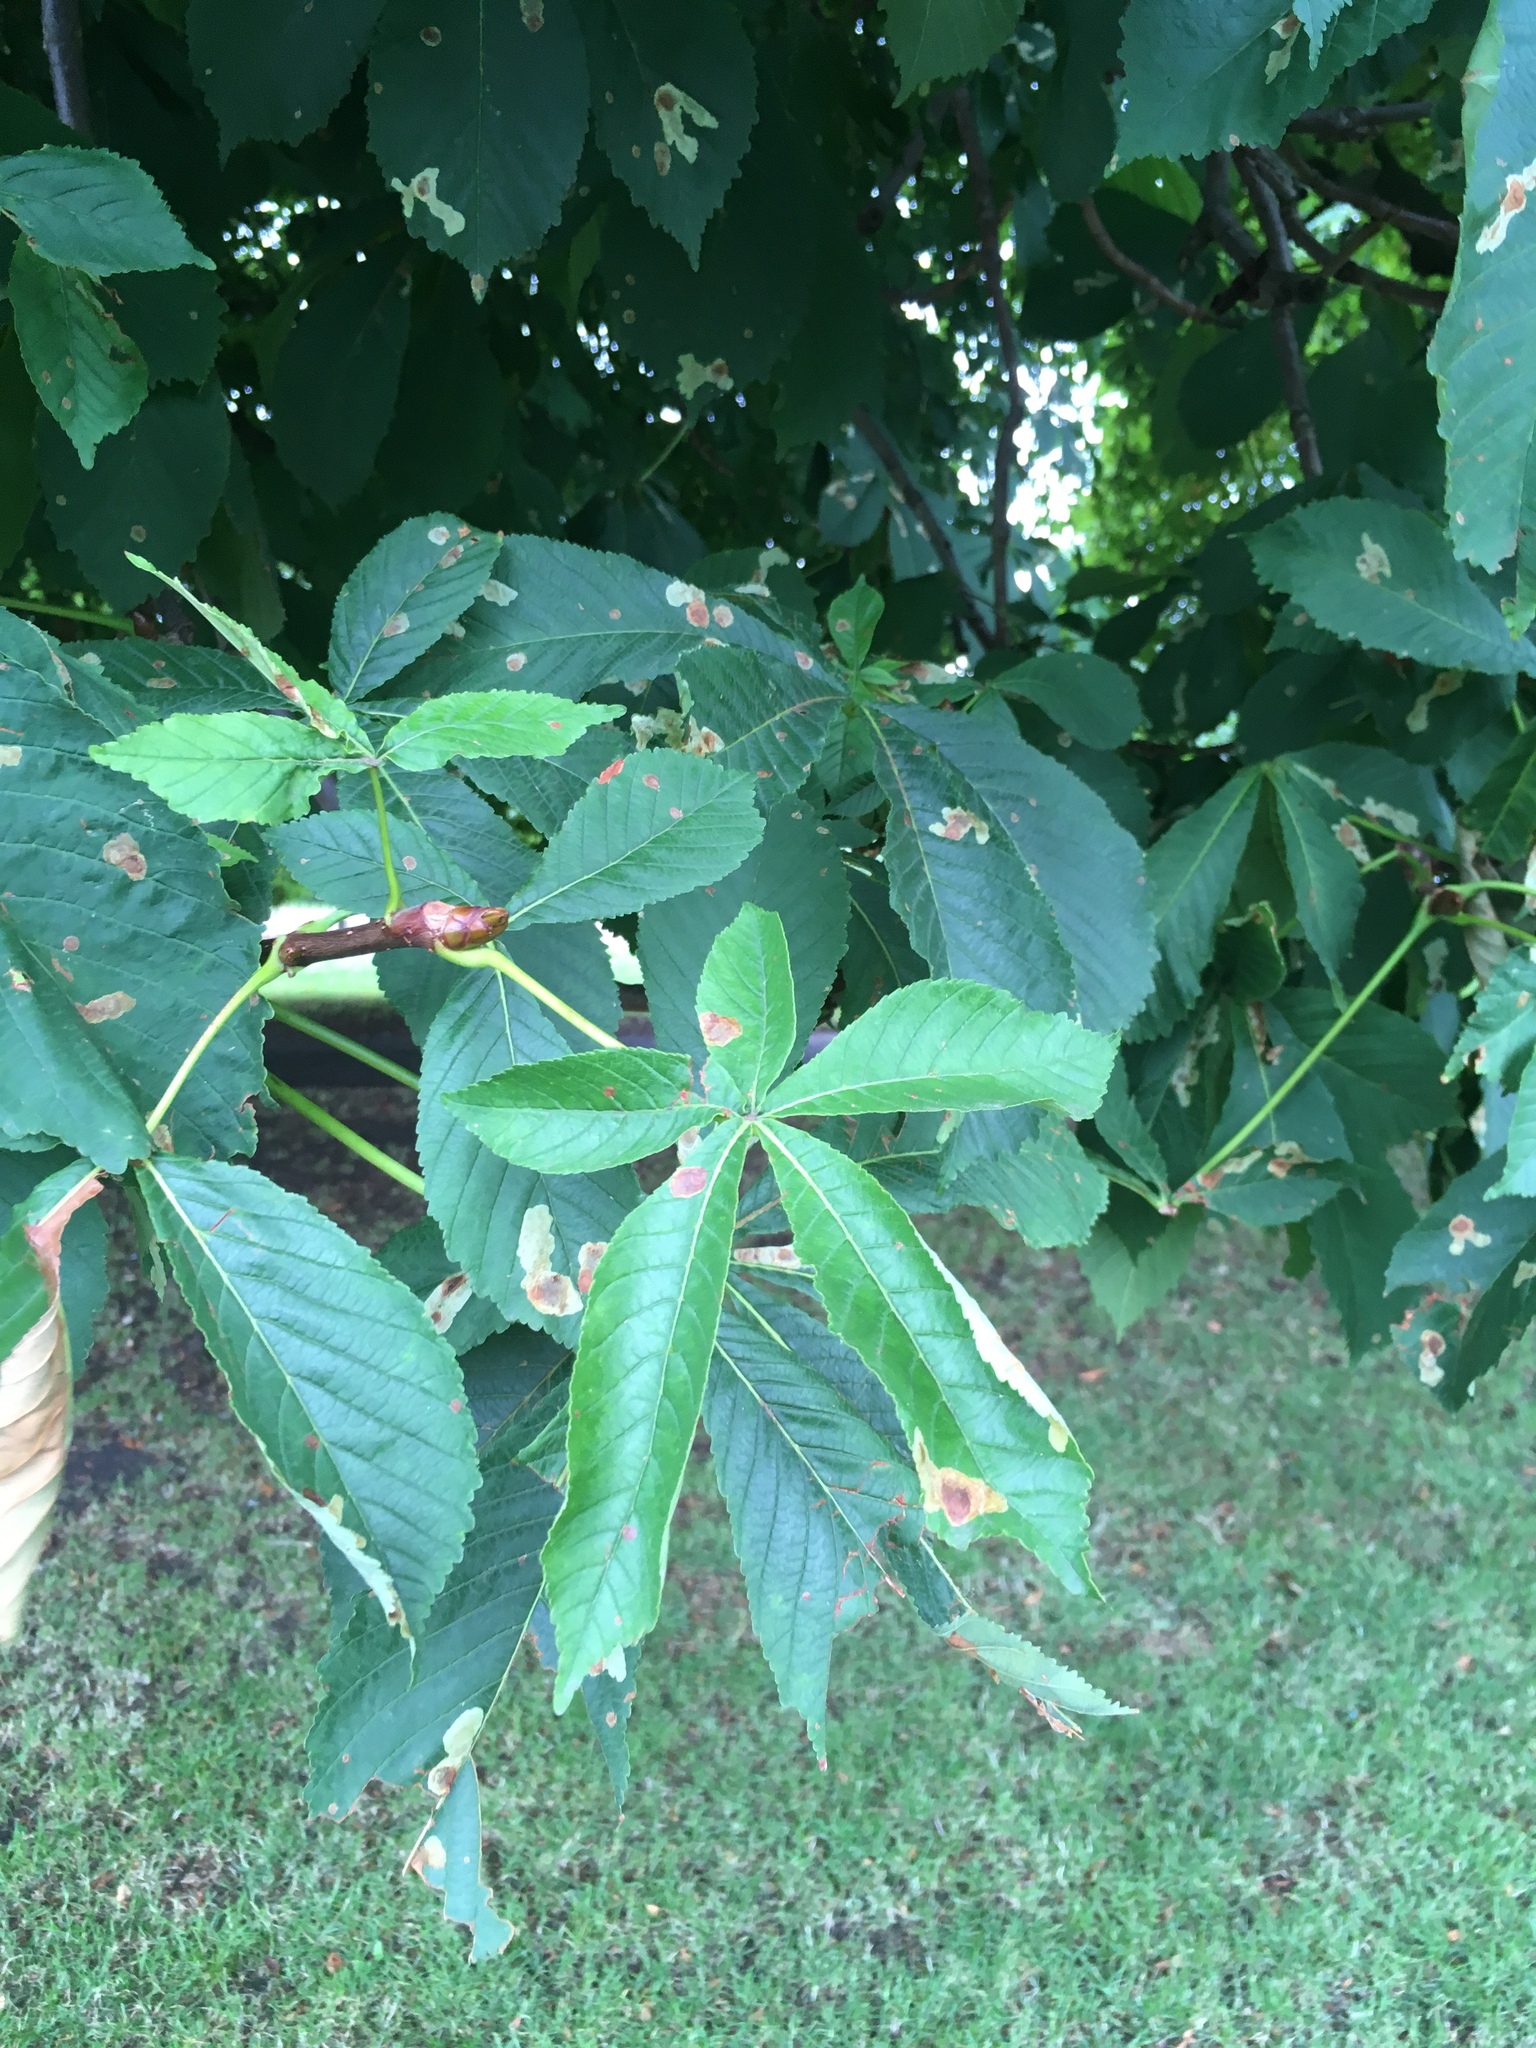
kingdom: Plantae
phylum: Tracheophyta
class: Magnoliopsida
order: Sapindales
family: Sapindaceae
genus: Aesculus
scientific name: Aesculus hippocastanum
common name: Horse-chestnut
